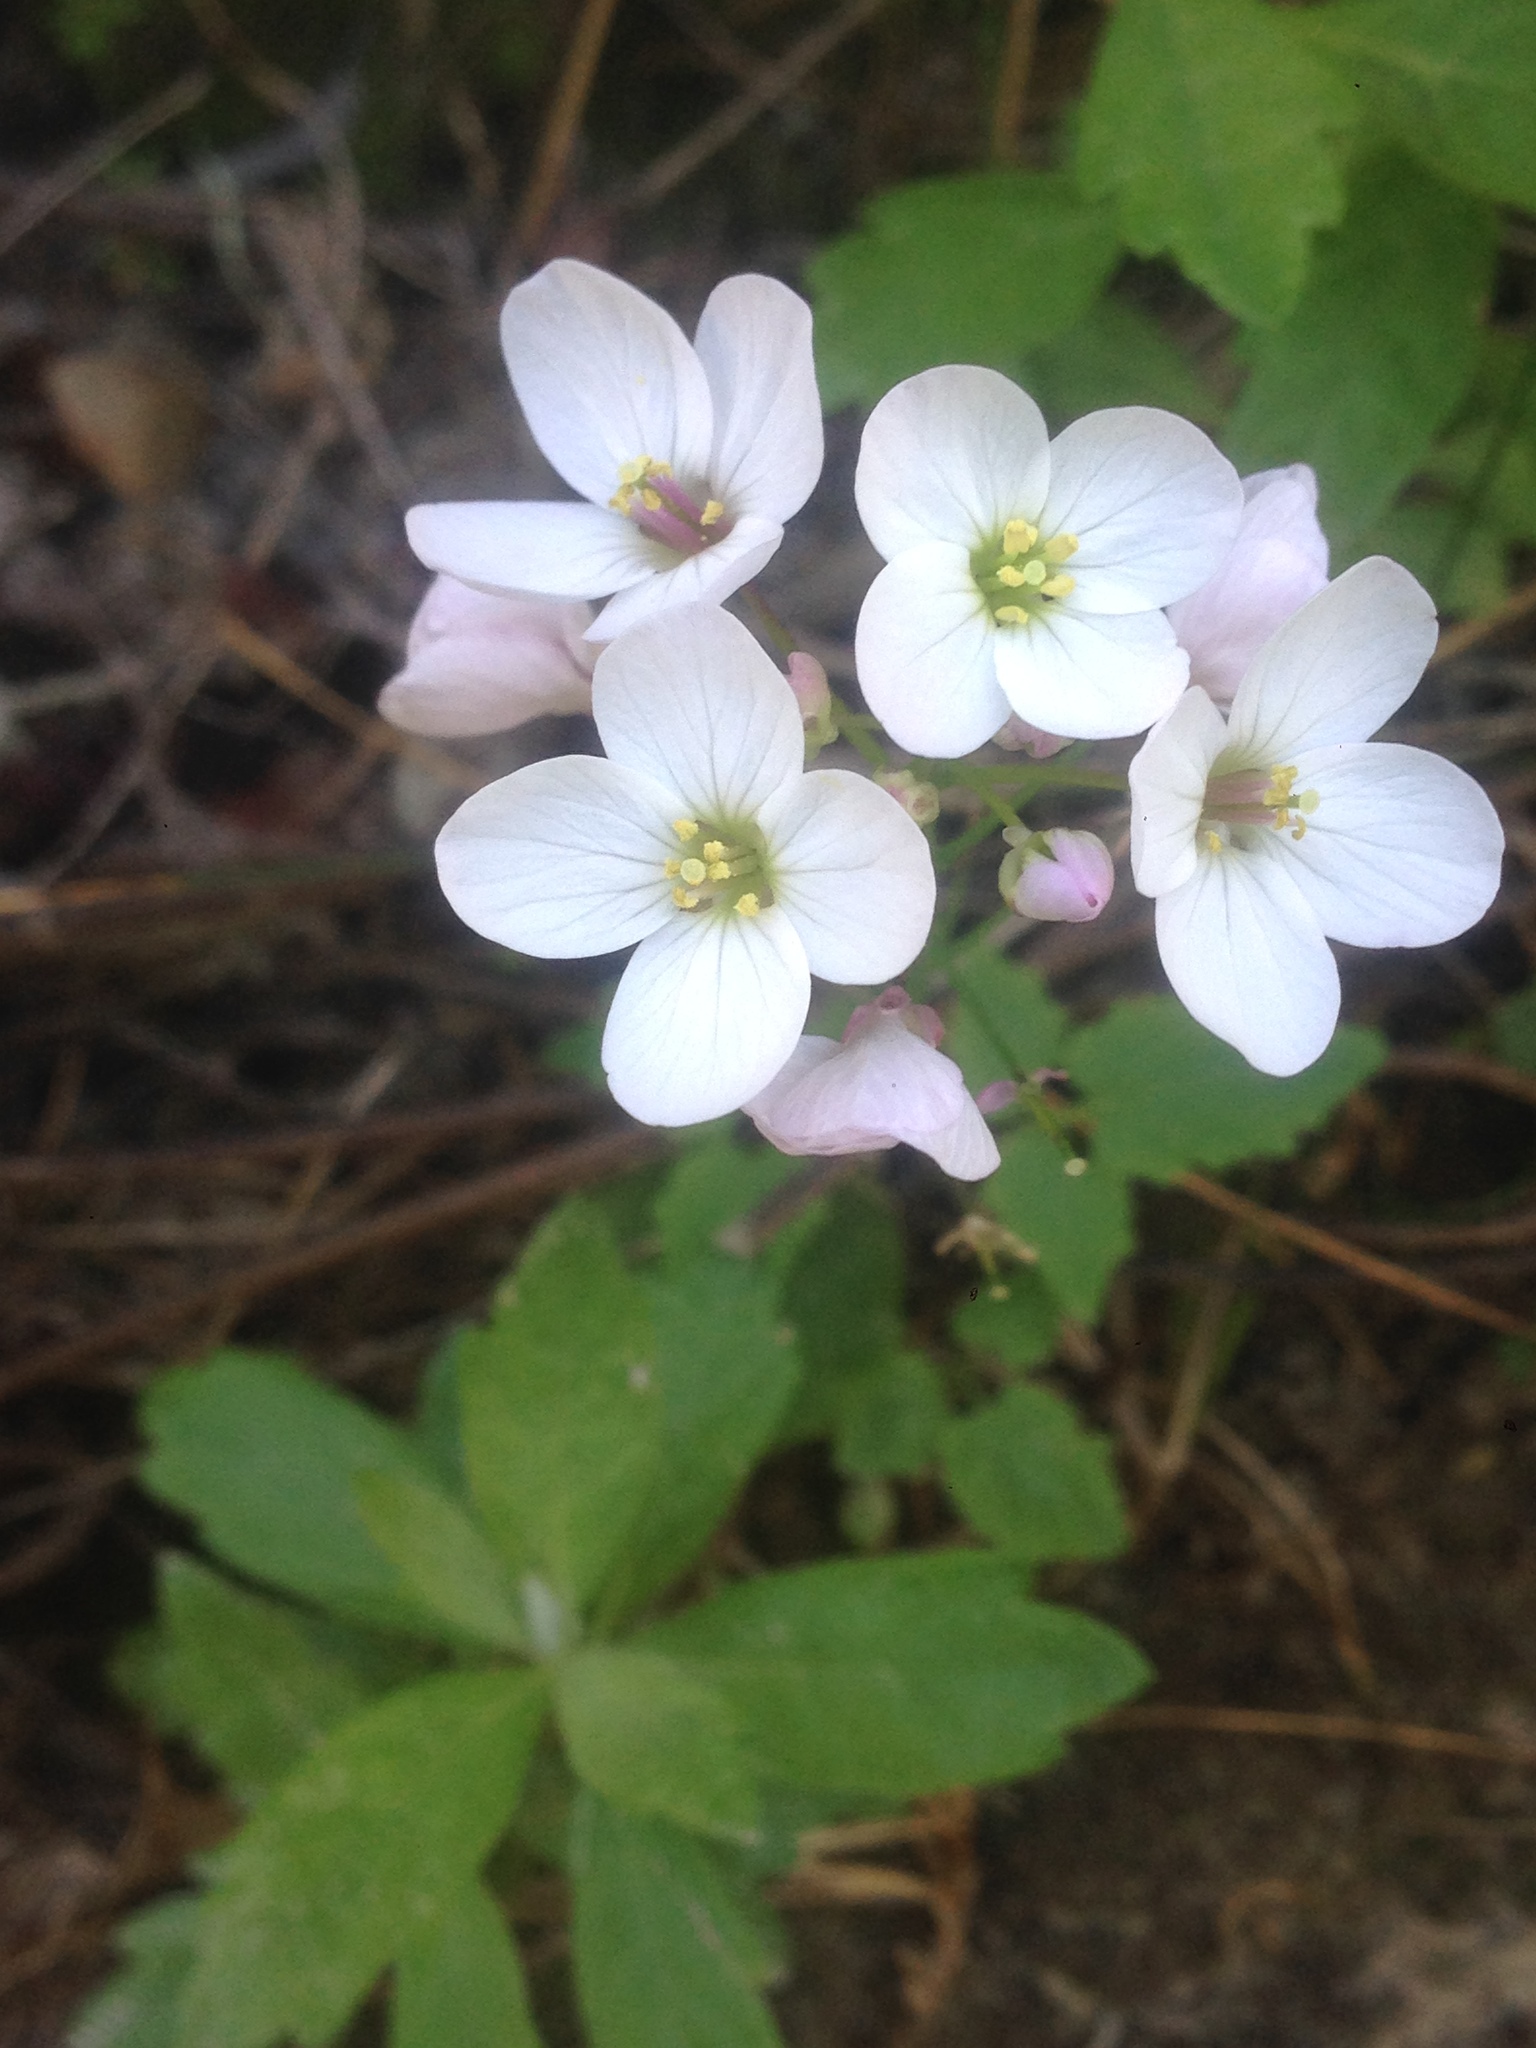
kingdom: Plantae
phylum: Tracheophyta
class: Magnoliopsida
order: Brassicales
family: Brassicaceae
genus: Cardamine
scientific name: Cardamine californica
